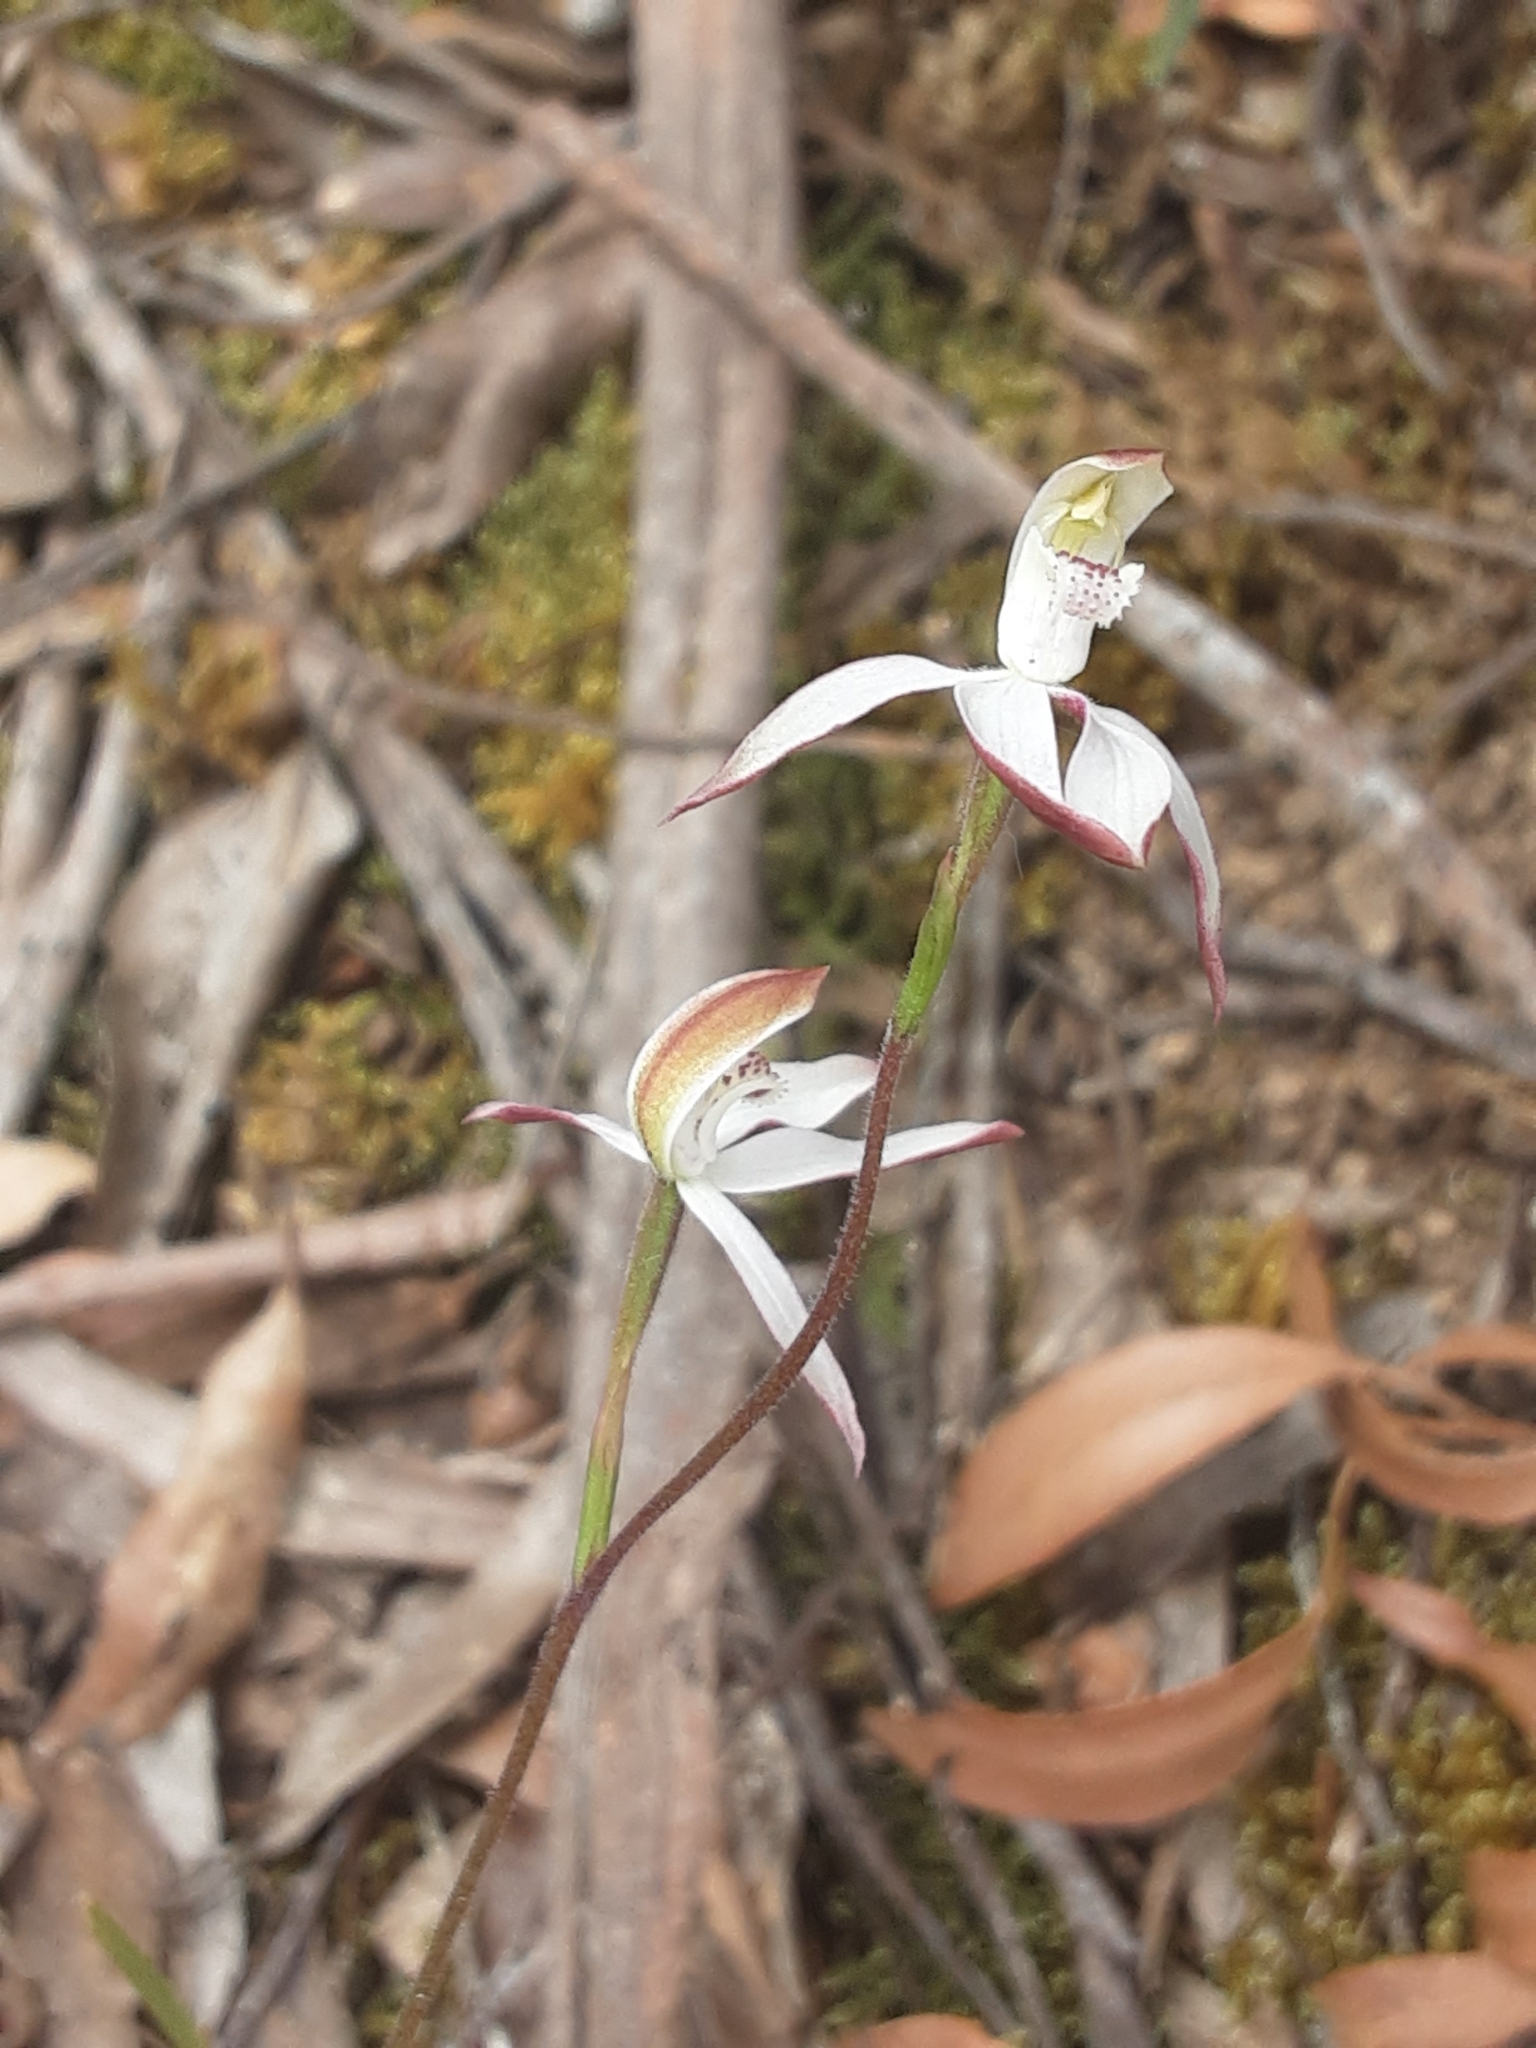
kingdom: Plantae
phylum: Tracheophyta
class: Liliopsida
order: Asparagales
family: Orchidaceae
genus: Caladenia
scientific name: Caladenia moschata
